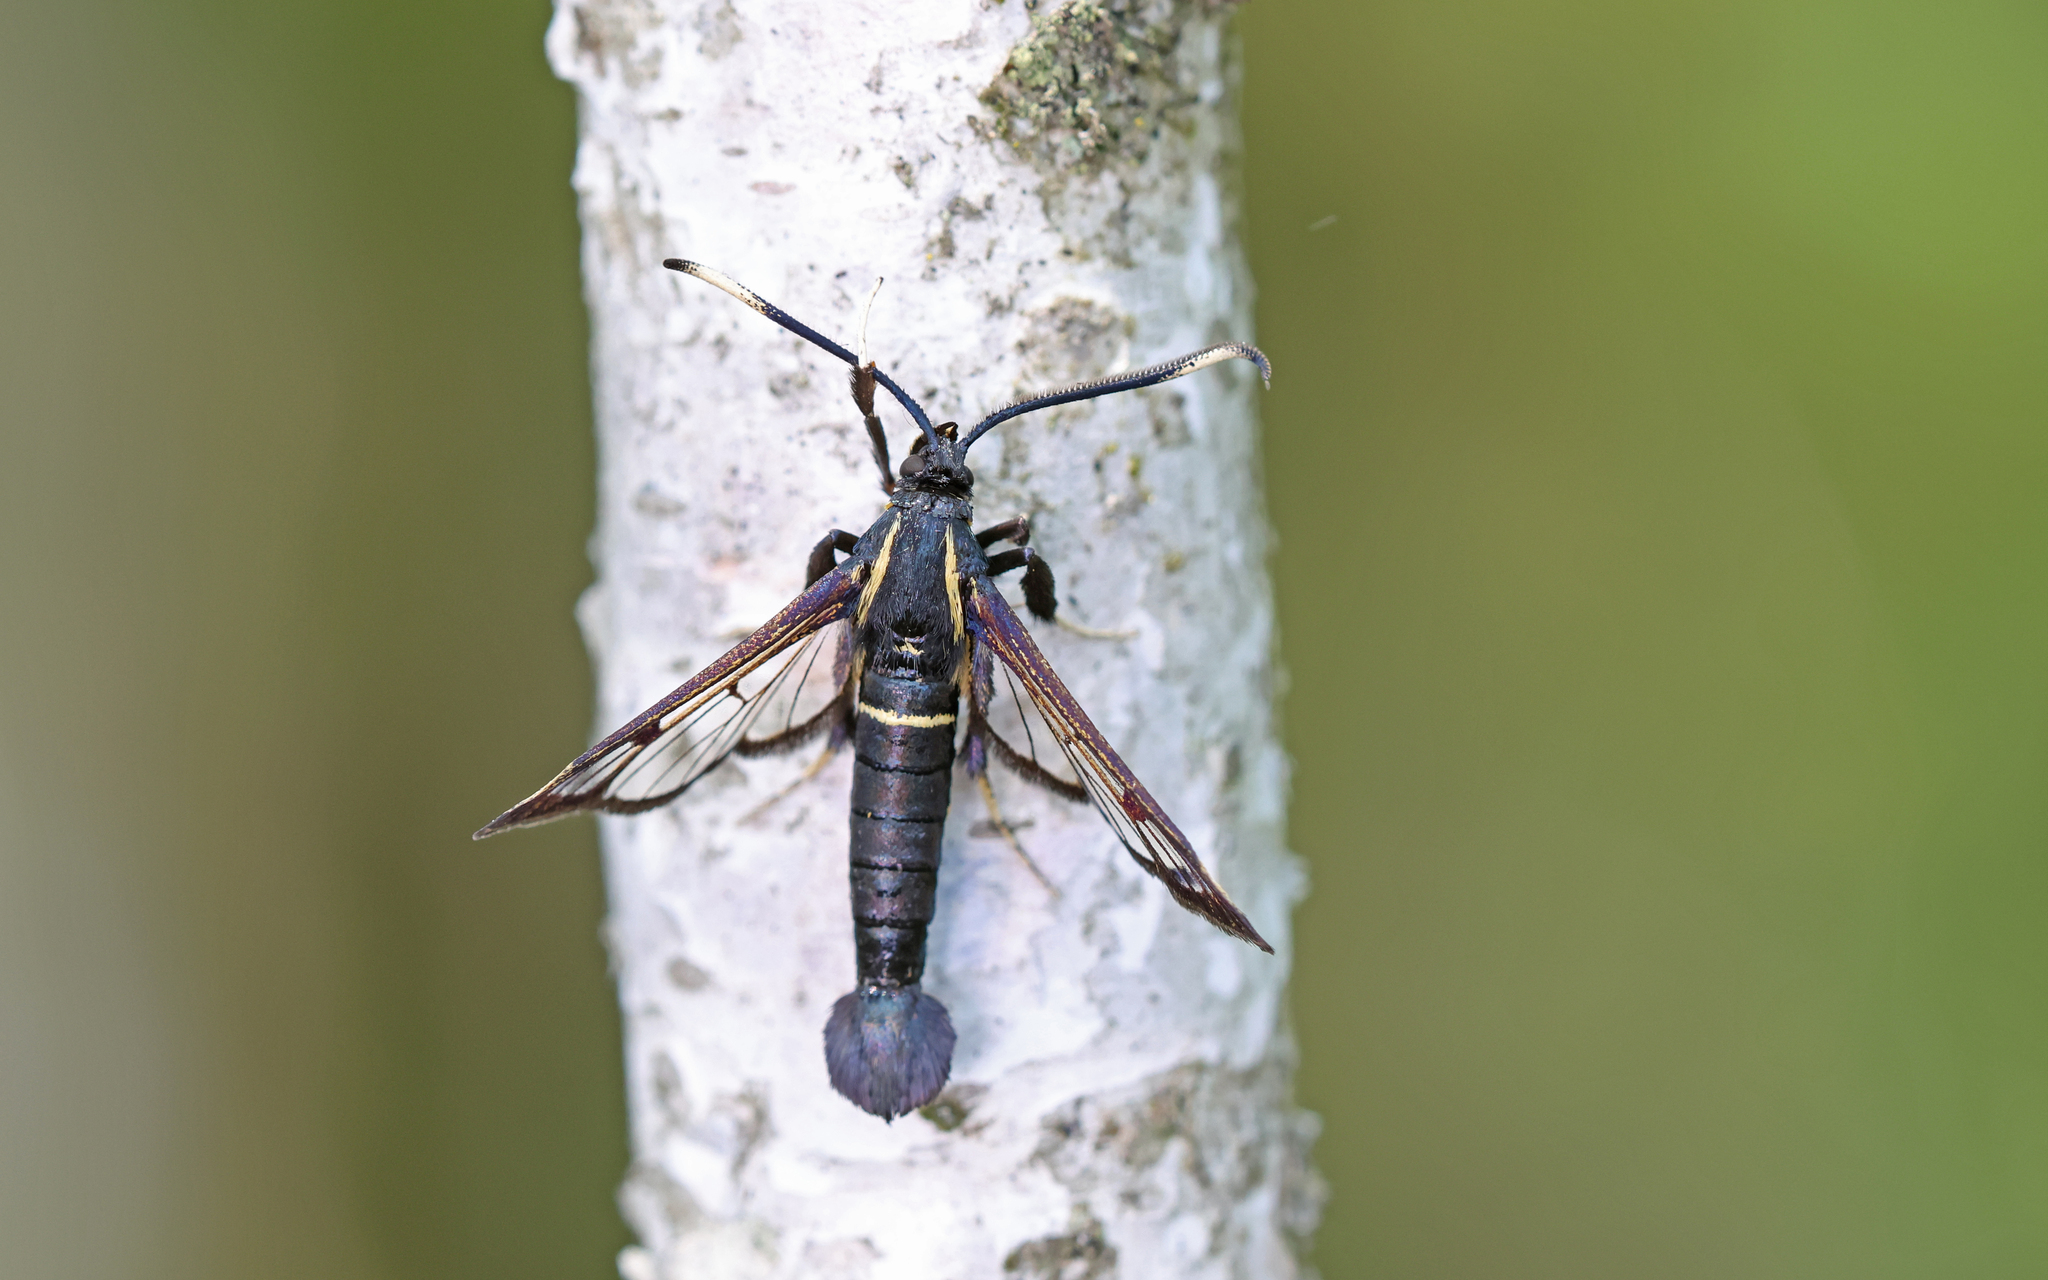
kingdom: Animalia
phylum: Arthropoda
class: Insecta
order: Lepidoptera
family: Sesiidae
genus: Synanthedon
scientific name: Synanthedon spheciformis
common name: White-barred clearwing
